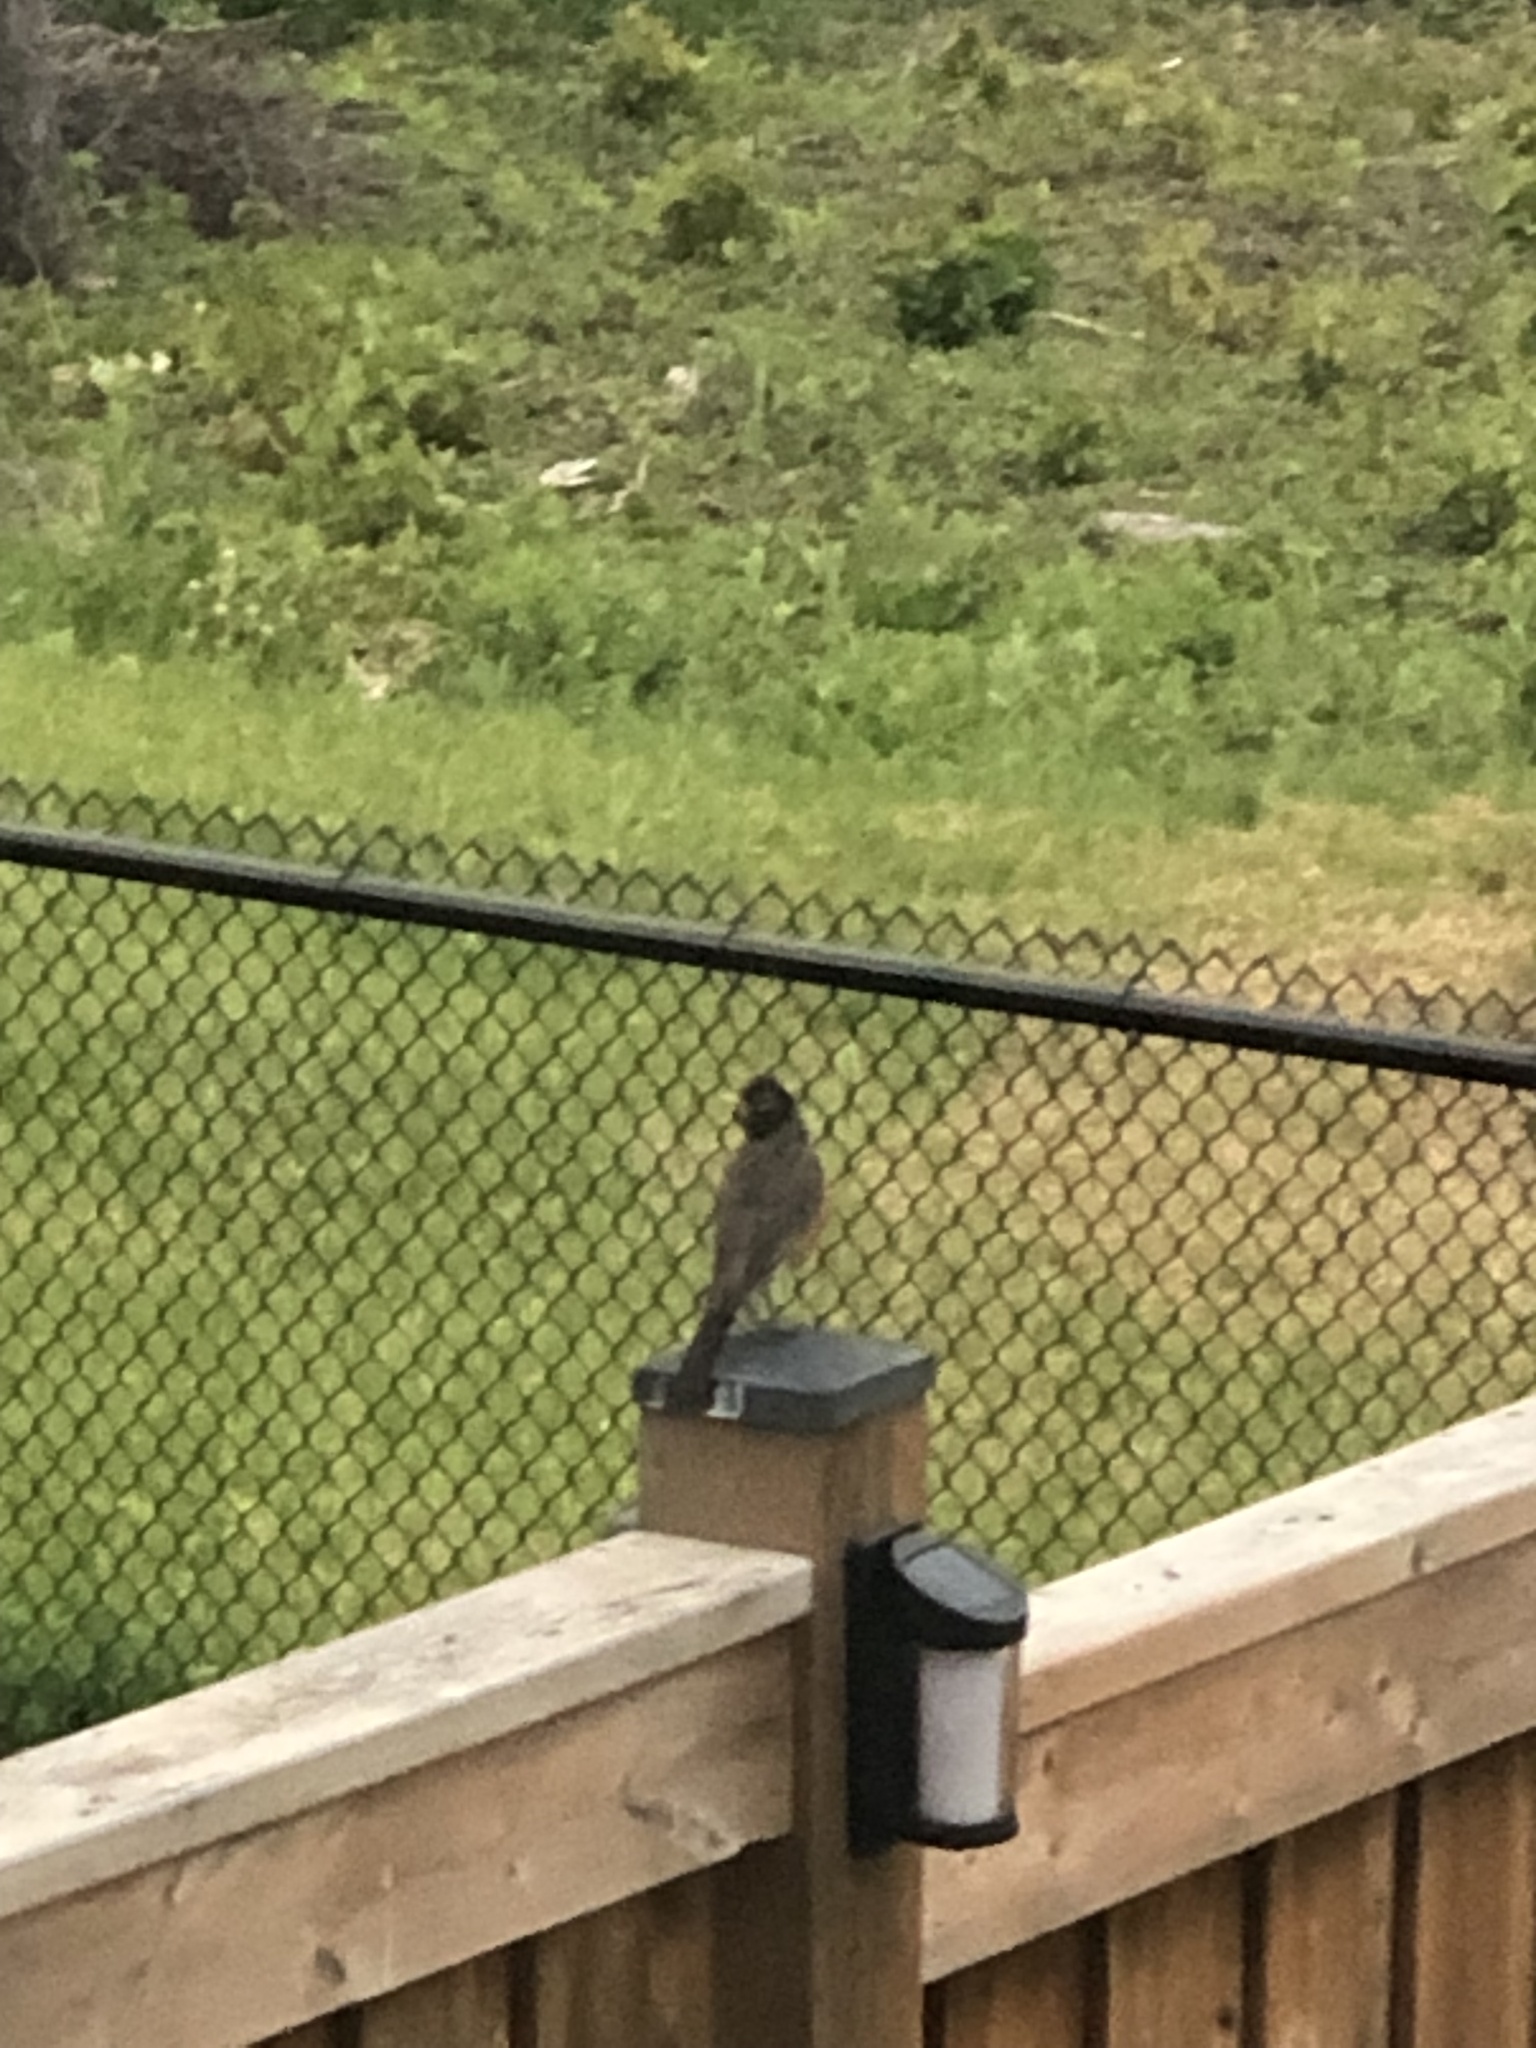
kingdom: Animalia
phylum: Chordata
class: Aves
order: Passeriformes
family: Turdidae
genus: Turdus
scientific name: Turdus migratorius
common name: American robin
